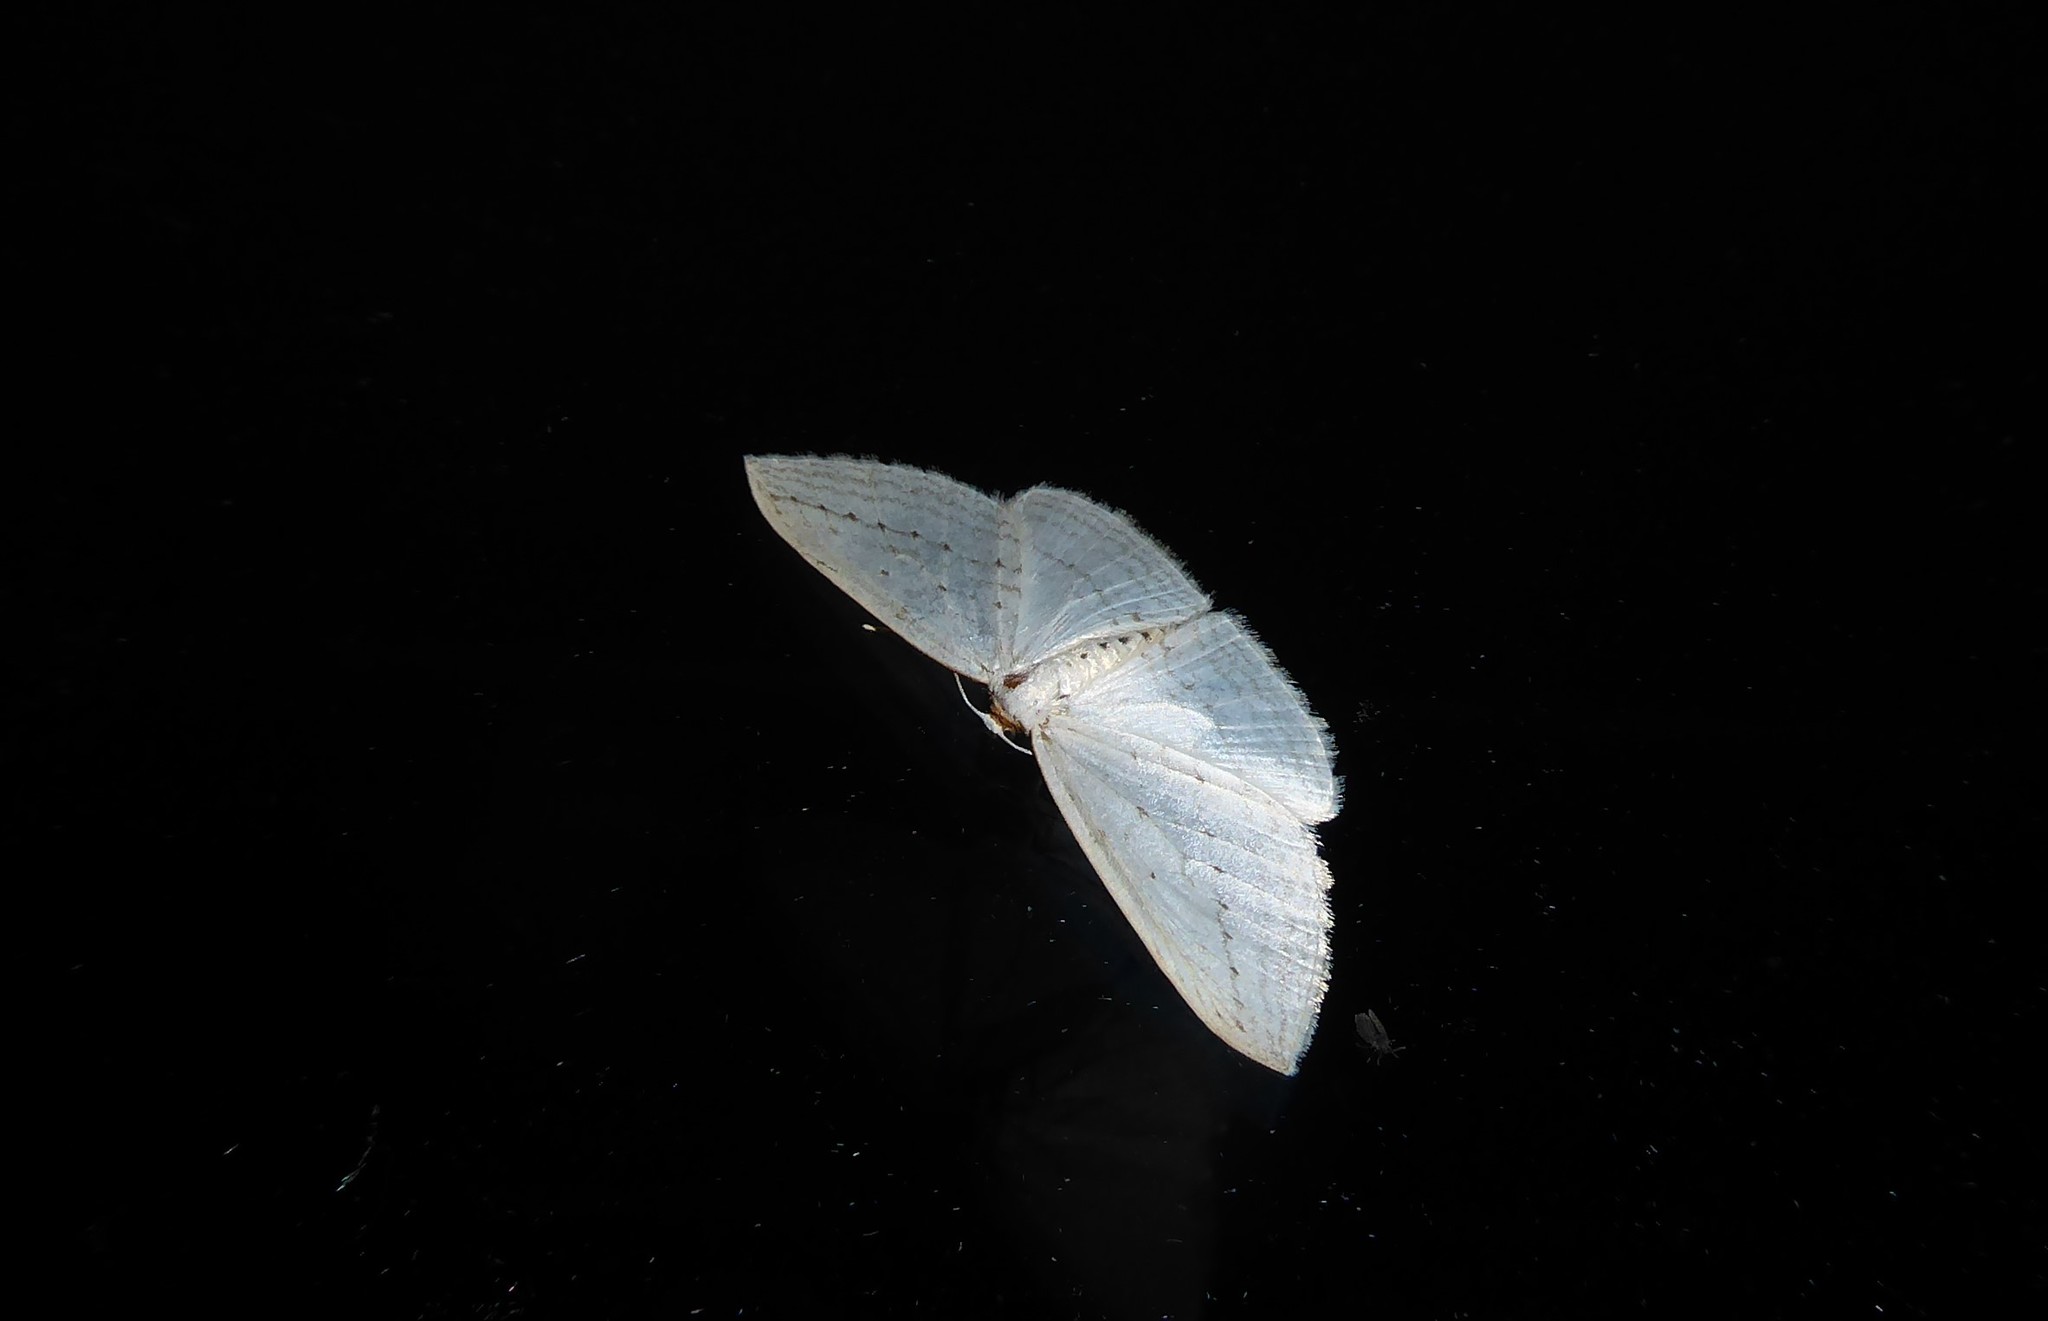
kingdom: Animalia
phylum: Arthropoda
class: Insecta
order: Lepidoptera
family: Geometridae
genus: Orthoclydon
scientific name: Orthoclydon praefectata
